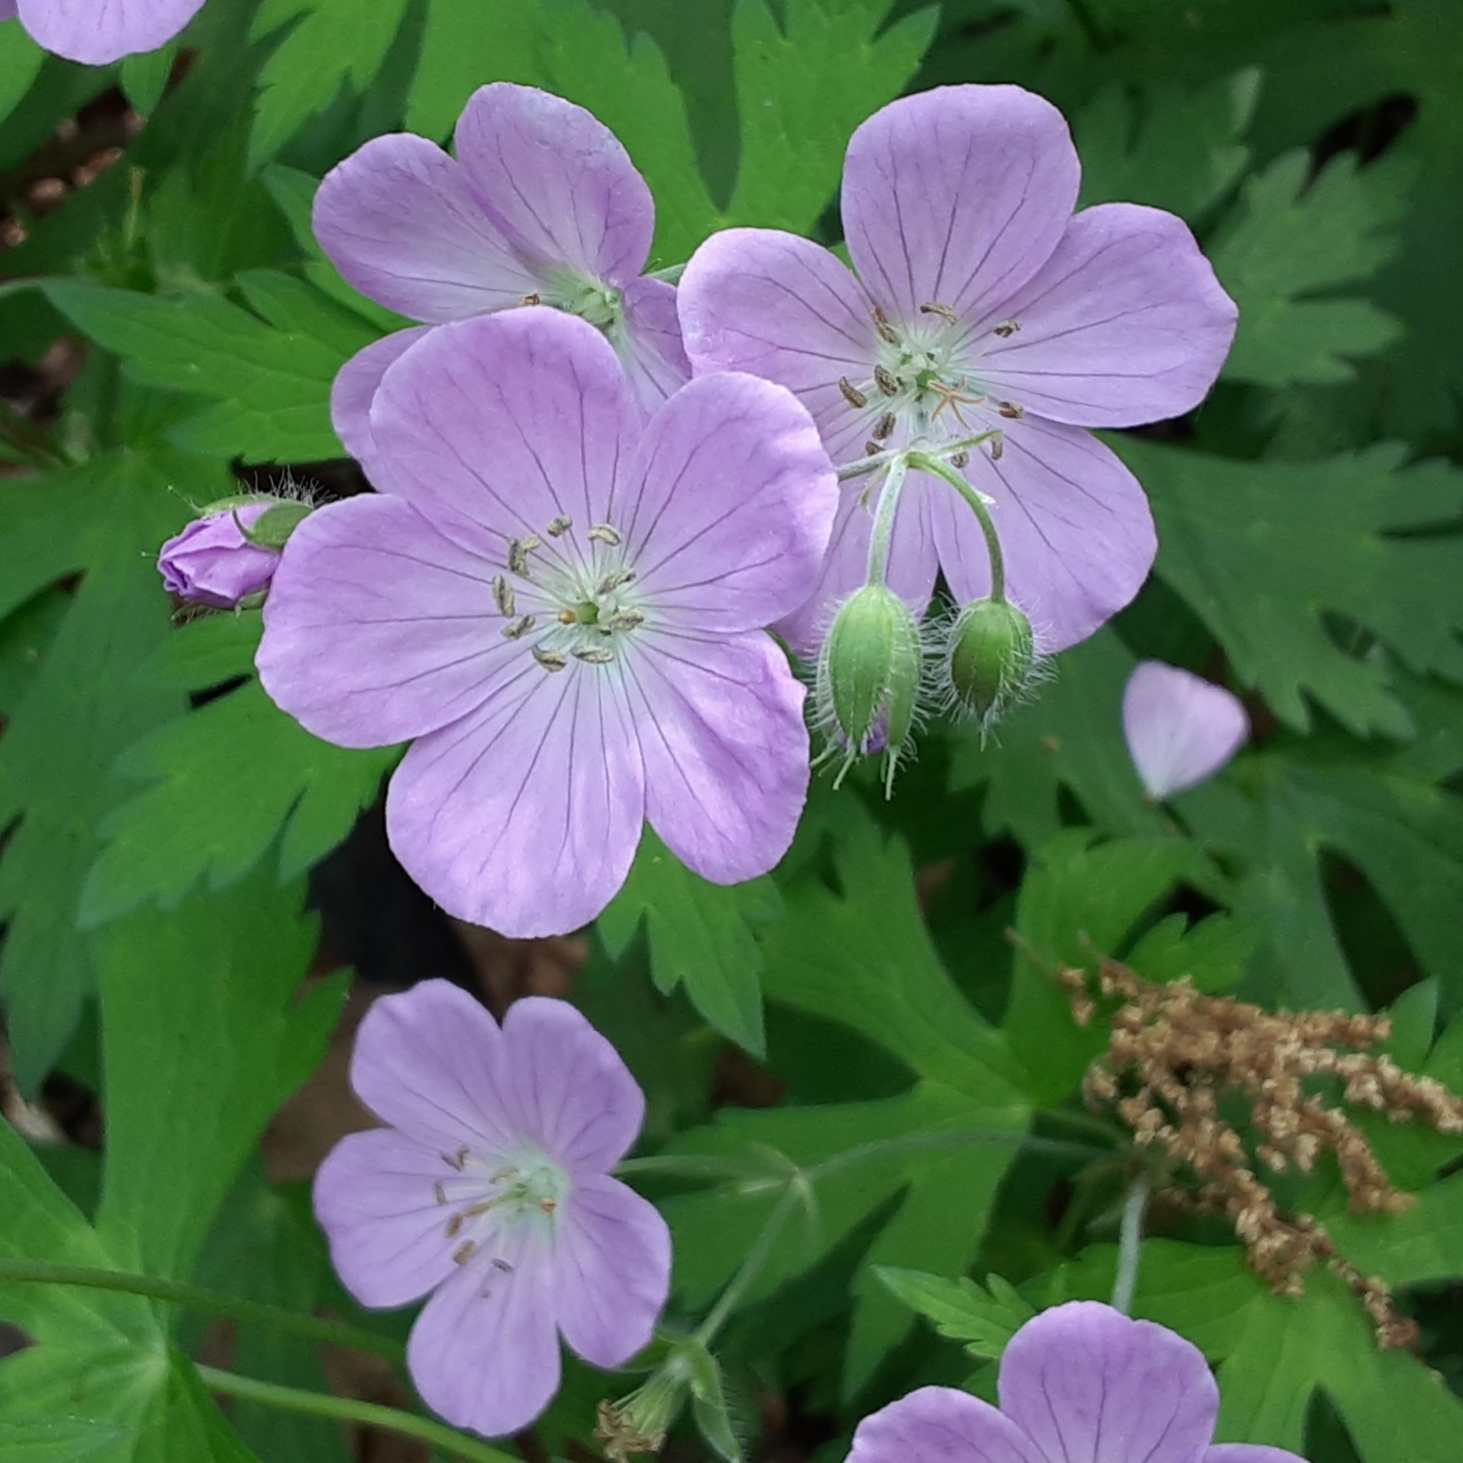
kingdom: Plantae
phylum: Tracheophyta
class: Magnoliopsida
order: Geraniales
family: Geraniaceae
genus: Geranium
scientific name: Geranium maculatum
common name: Spotted geranium
